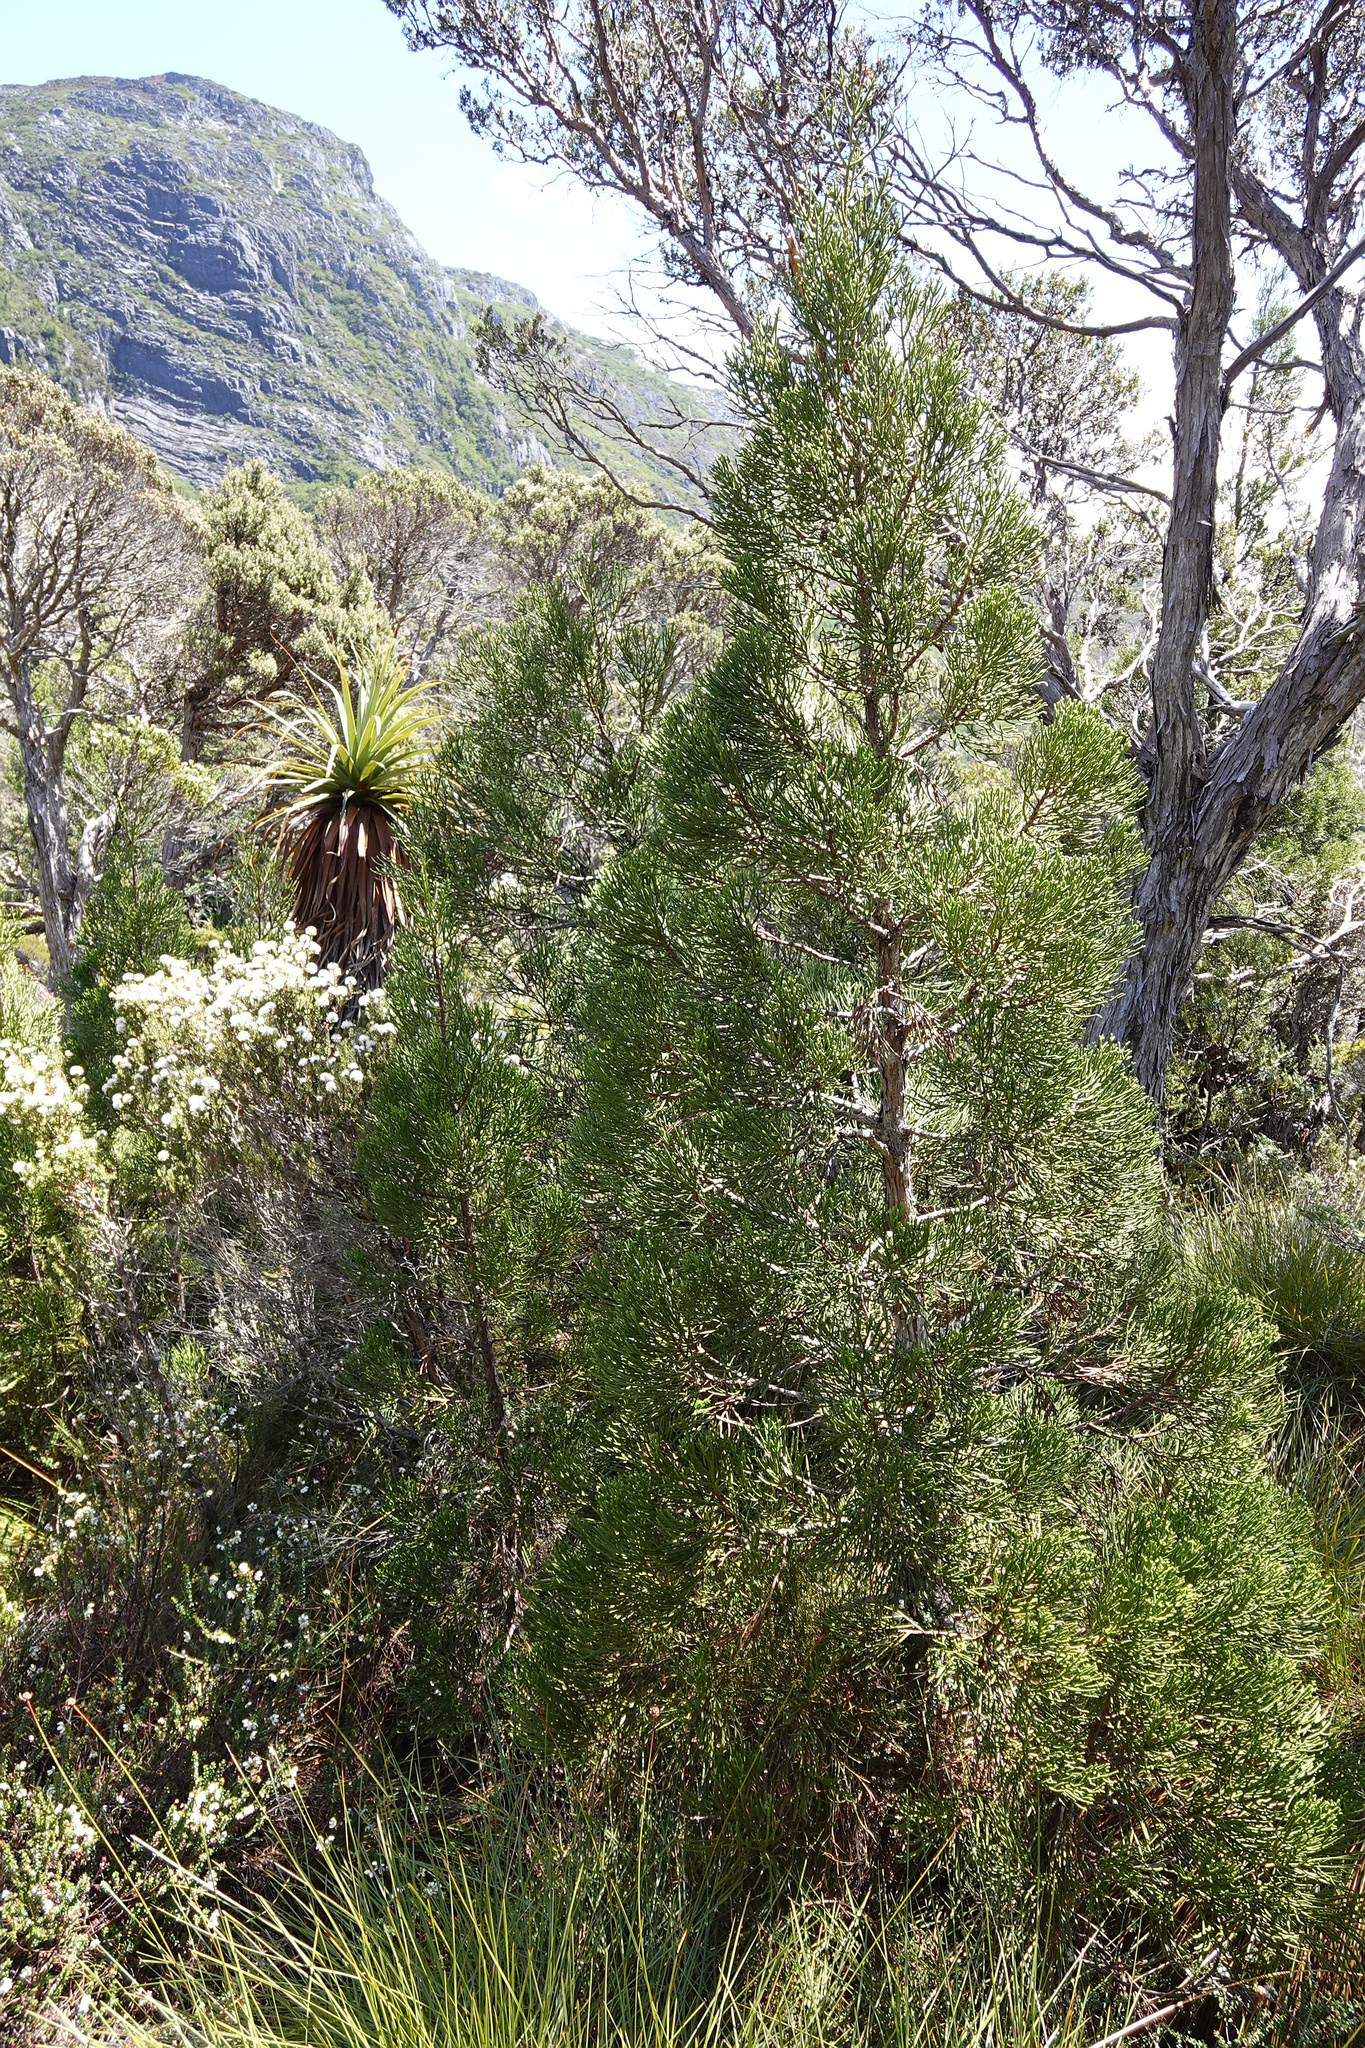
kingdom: Plantae
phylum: Tracheophyta
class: Pinopsida
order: Pinales
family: Cupressaceae
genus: Athrotaxis
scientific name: Athrotaxis cupressoides
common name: Tasmanian pencil pine
